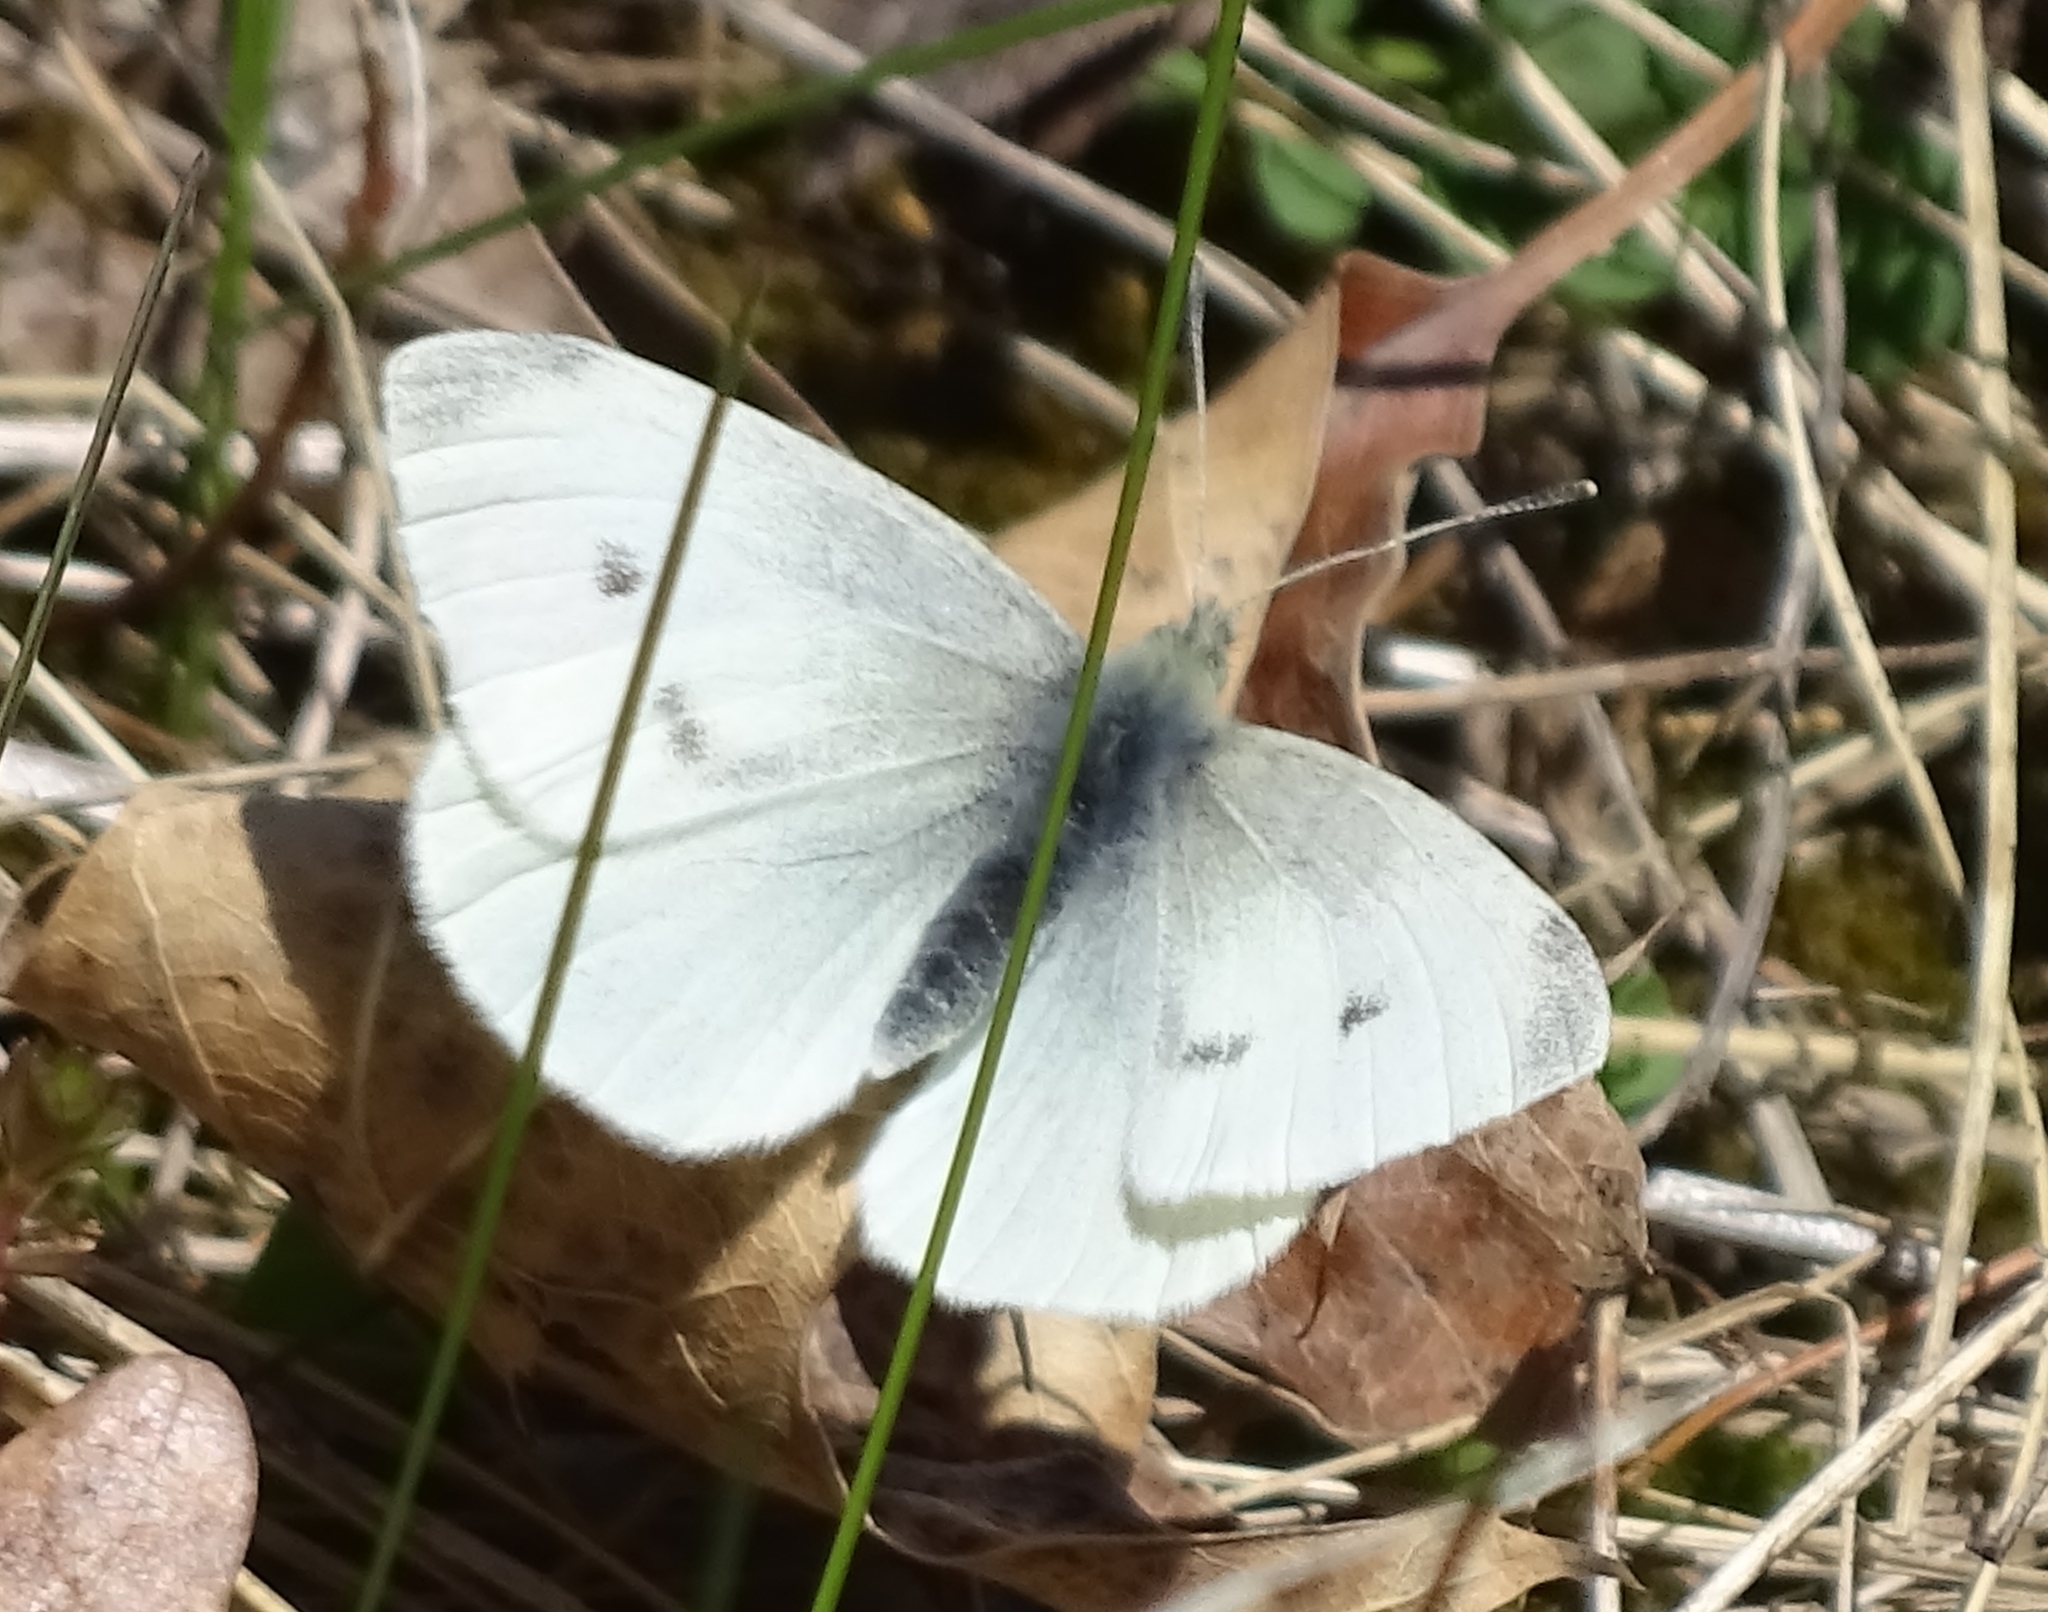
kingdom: Animalia
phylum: Arthropoda
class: Insecta
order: Lepidoptera
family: Pieridae
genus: Pieris
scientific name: Pieris rapae
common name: Small white
